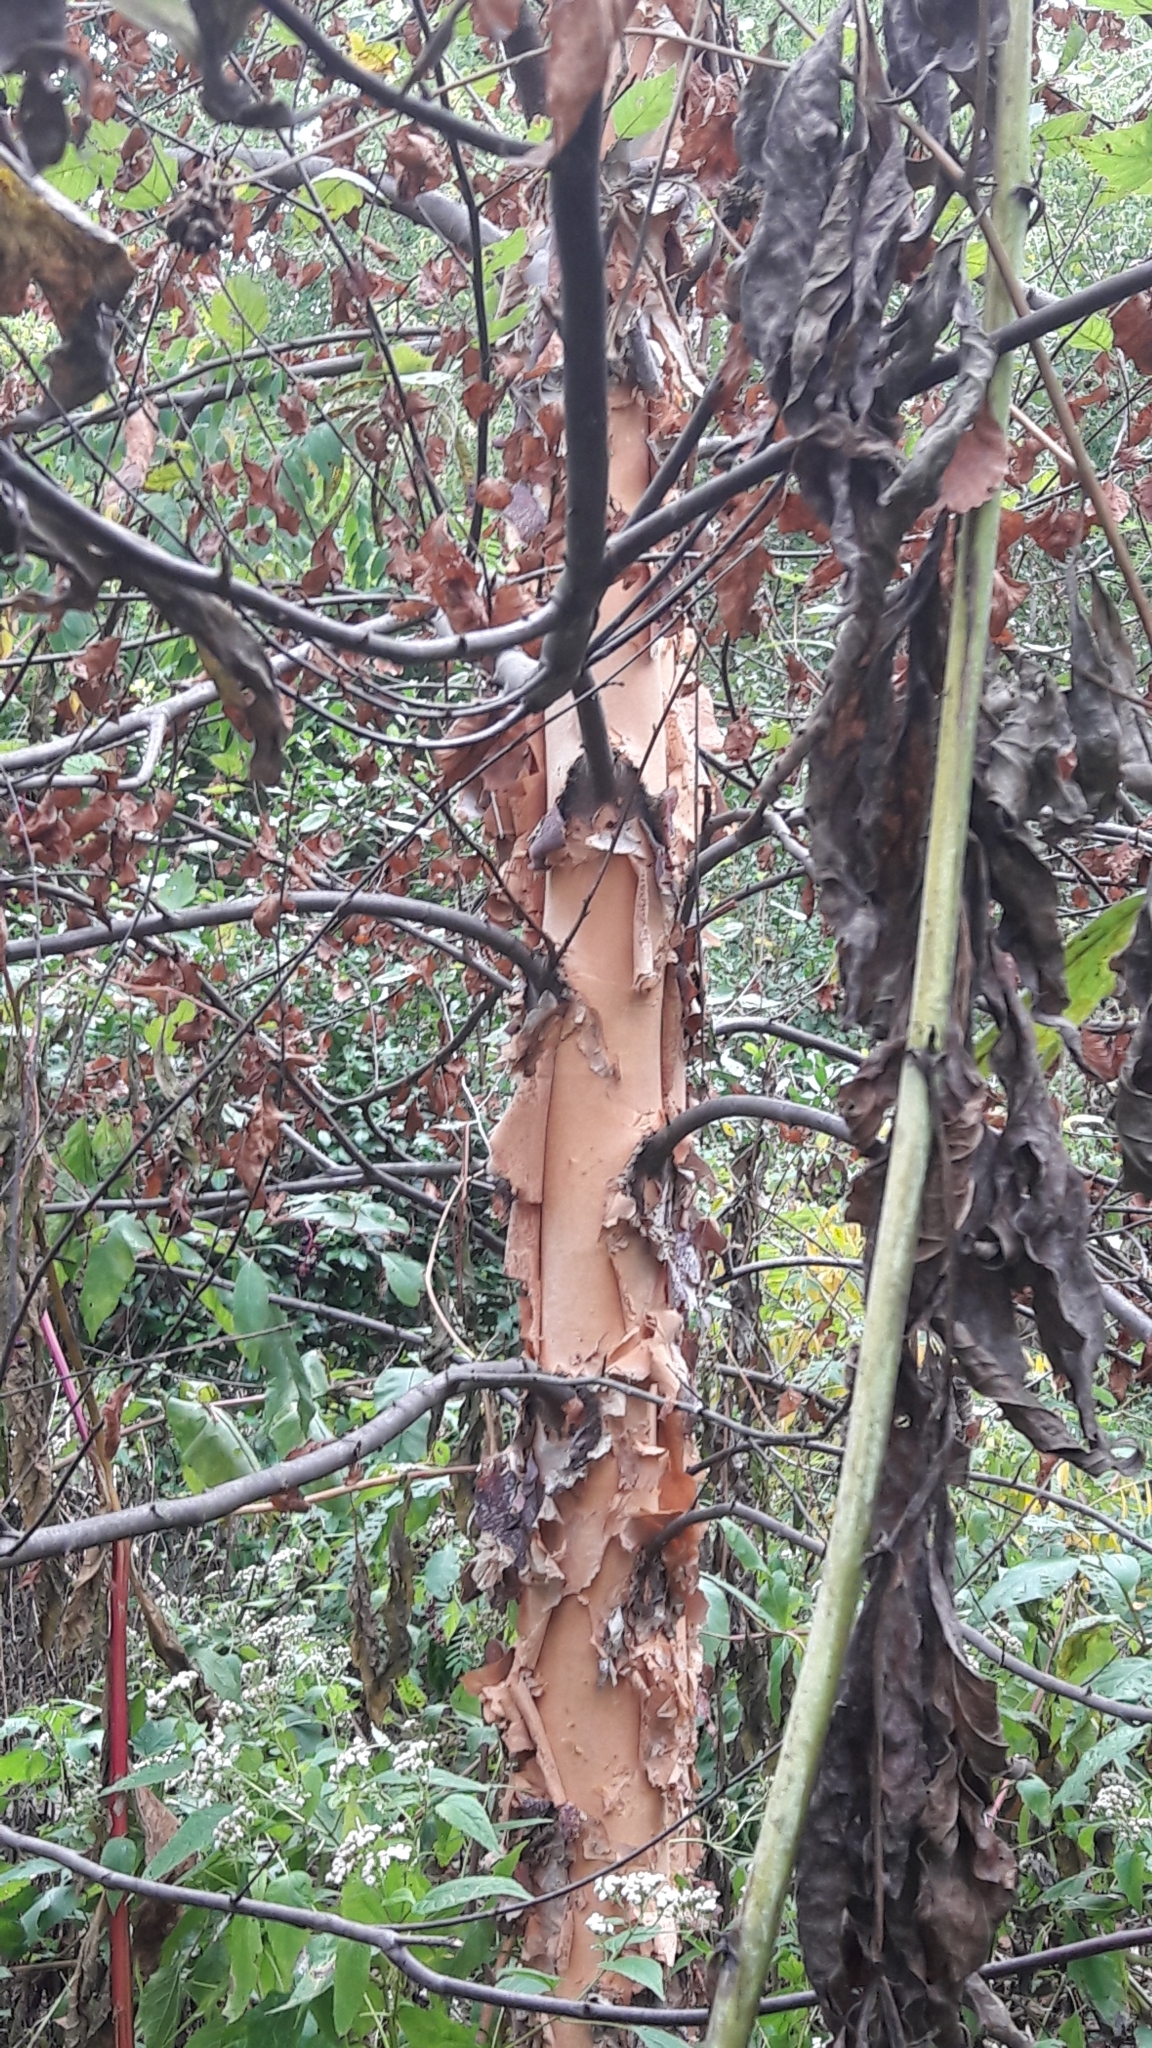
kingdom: Plantae
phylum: Tracheophyta
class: Magnoliopsida
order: Fagales
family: Betulaceae
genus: Betula
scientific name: Betula nigra
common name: Black birch
